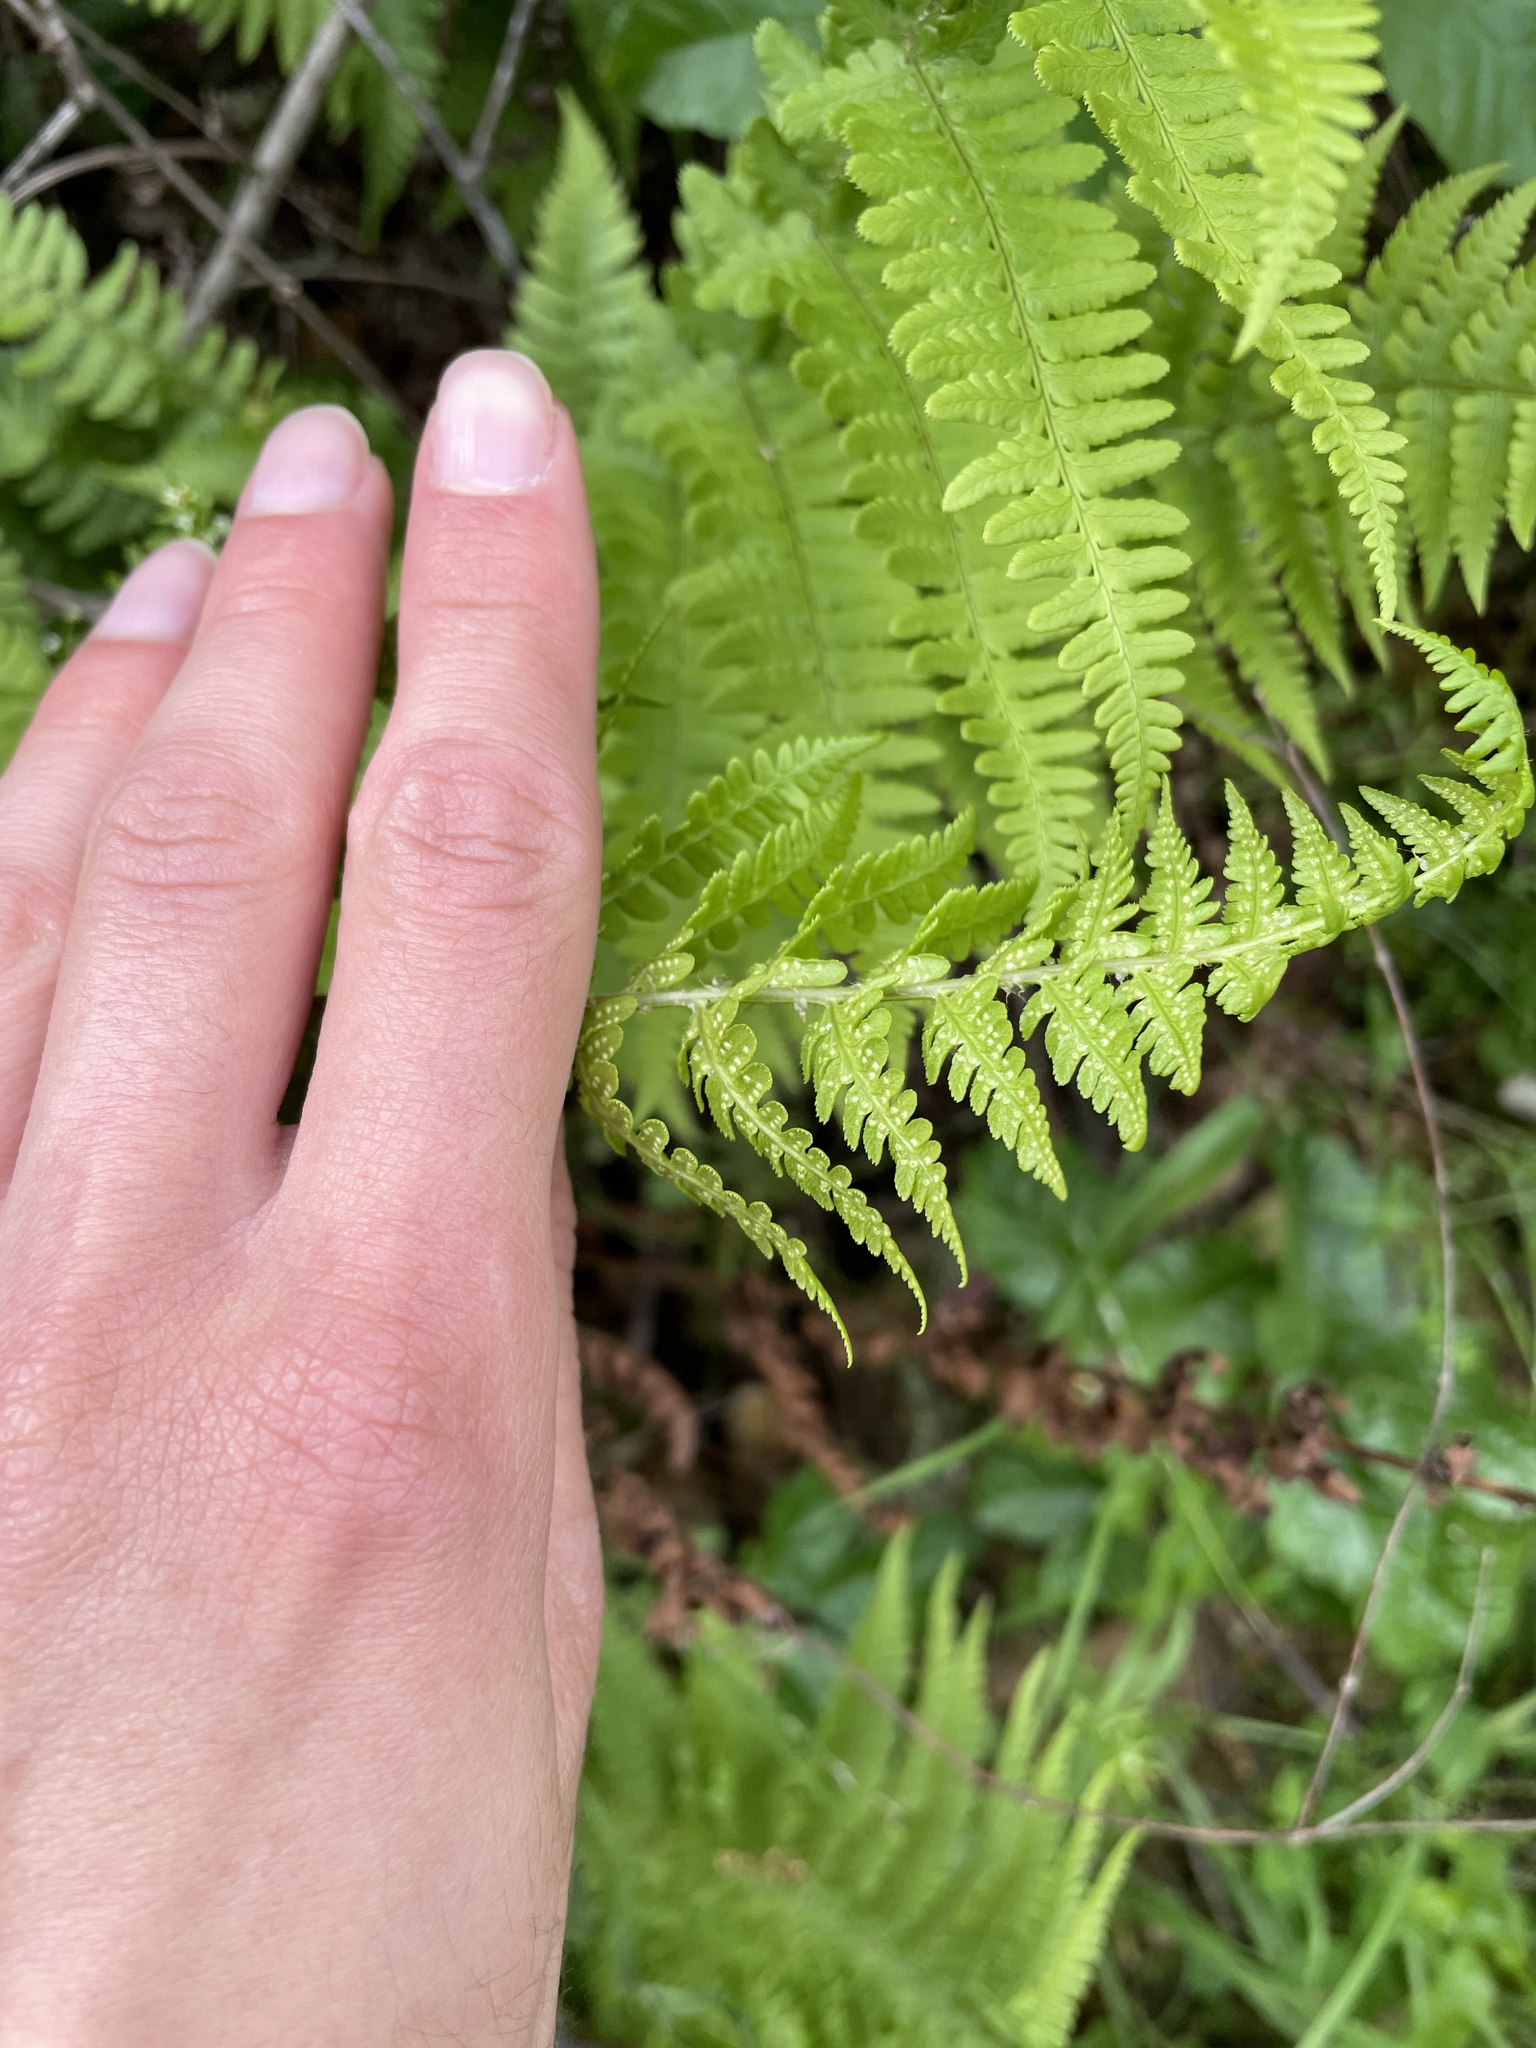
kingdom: Plantae
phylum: Tracheophyta
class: Polypodiopsida
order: Polypodiales
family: Dryopteridaceae
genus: Dryopteris
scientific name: Dryopteris arguta
